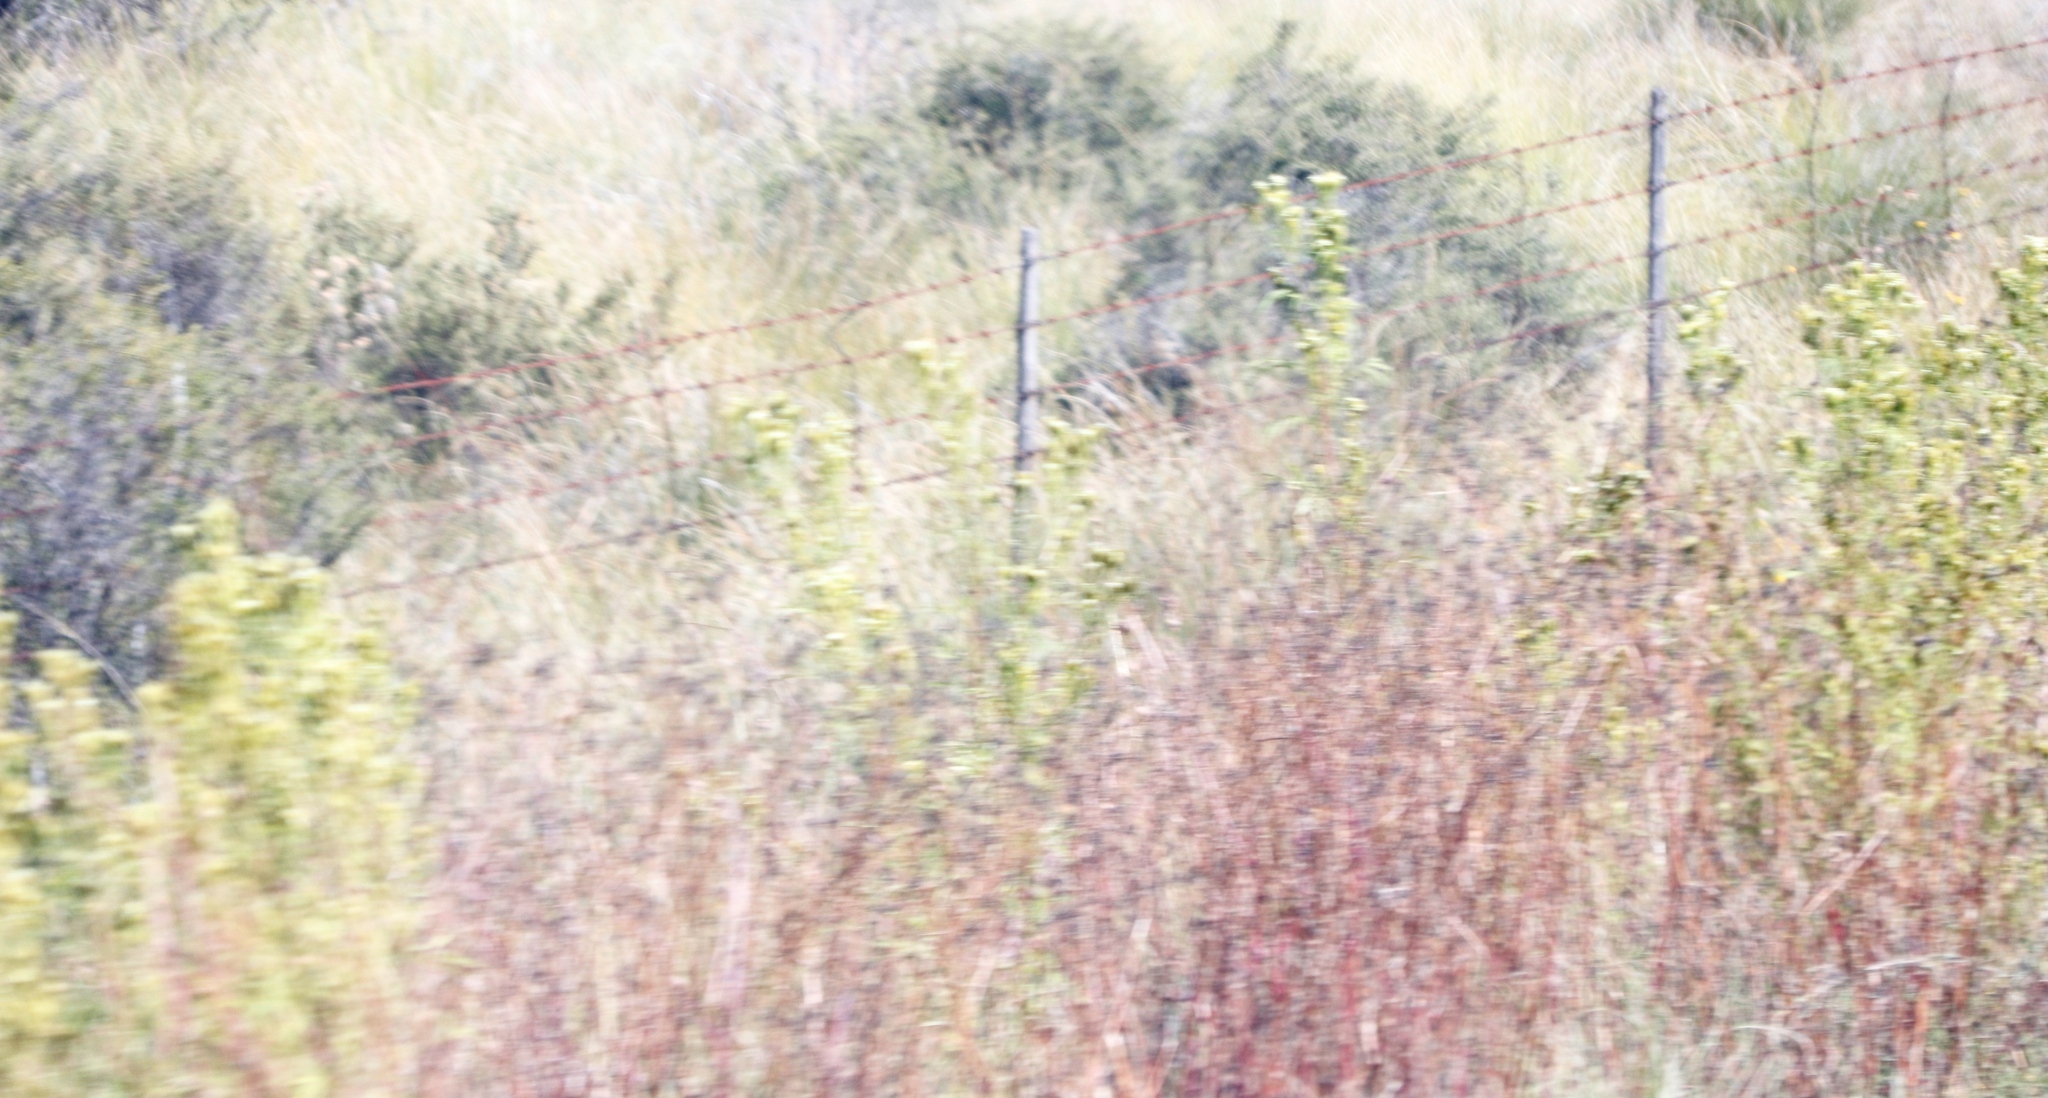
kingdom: Plantae
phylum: Tracheophyta
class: Magnoliopsida
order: Asterales
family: Asteraceae
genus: Tagetes
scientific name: Tagetes minuta
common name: Muster john henry
